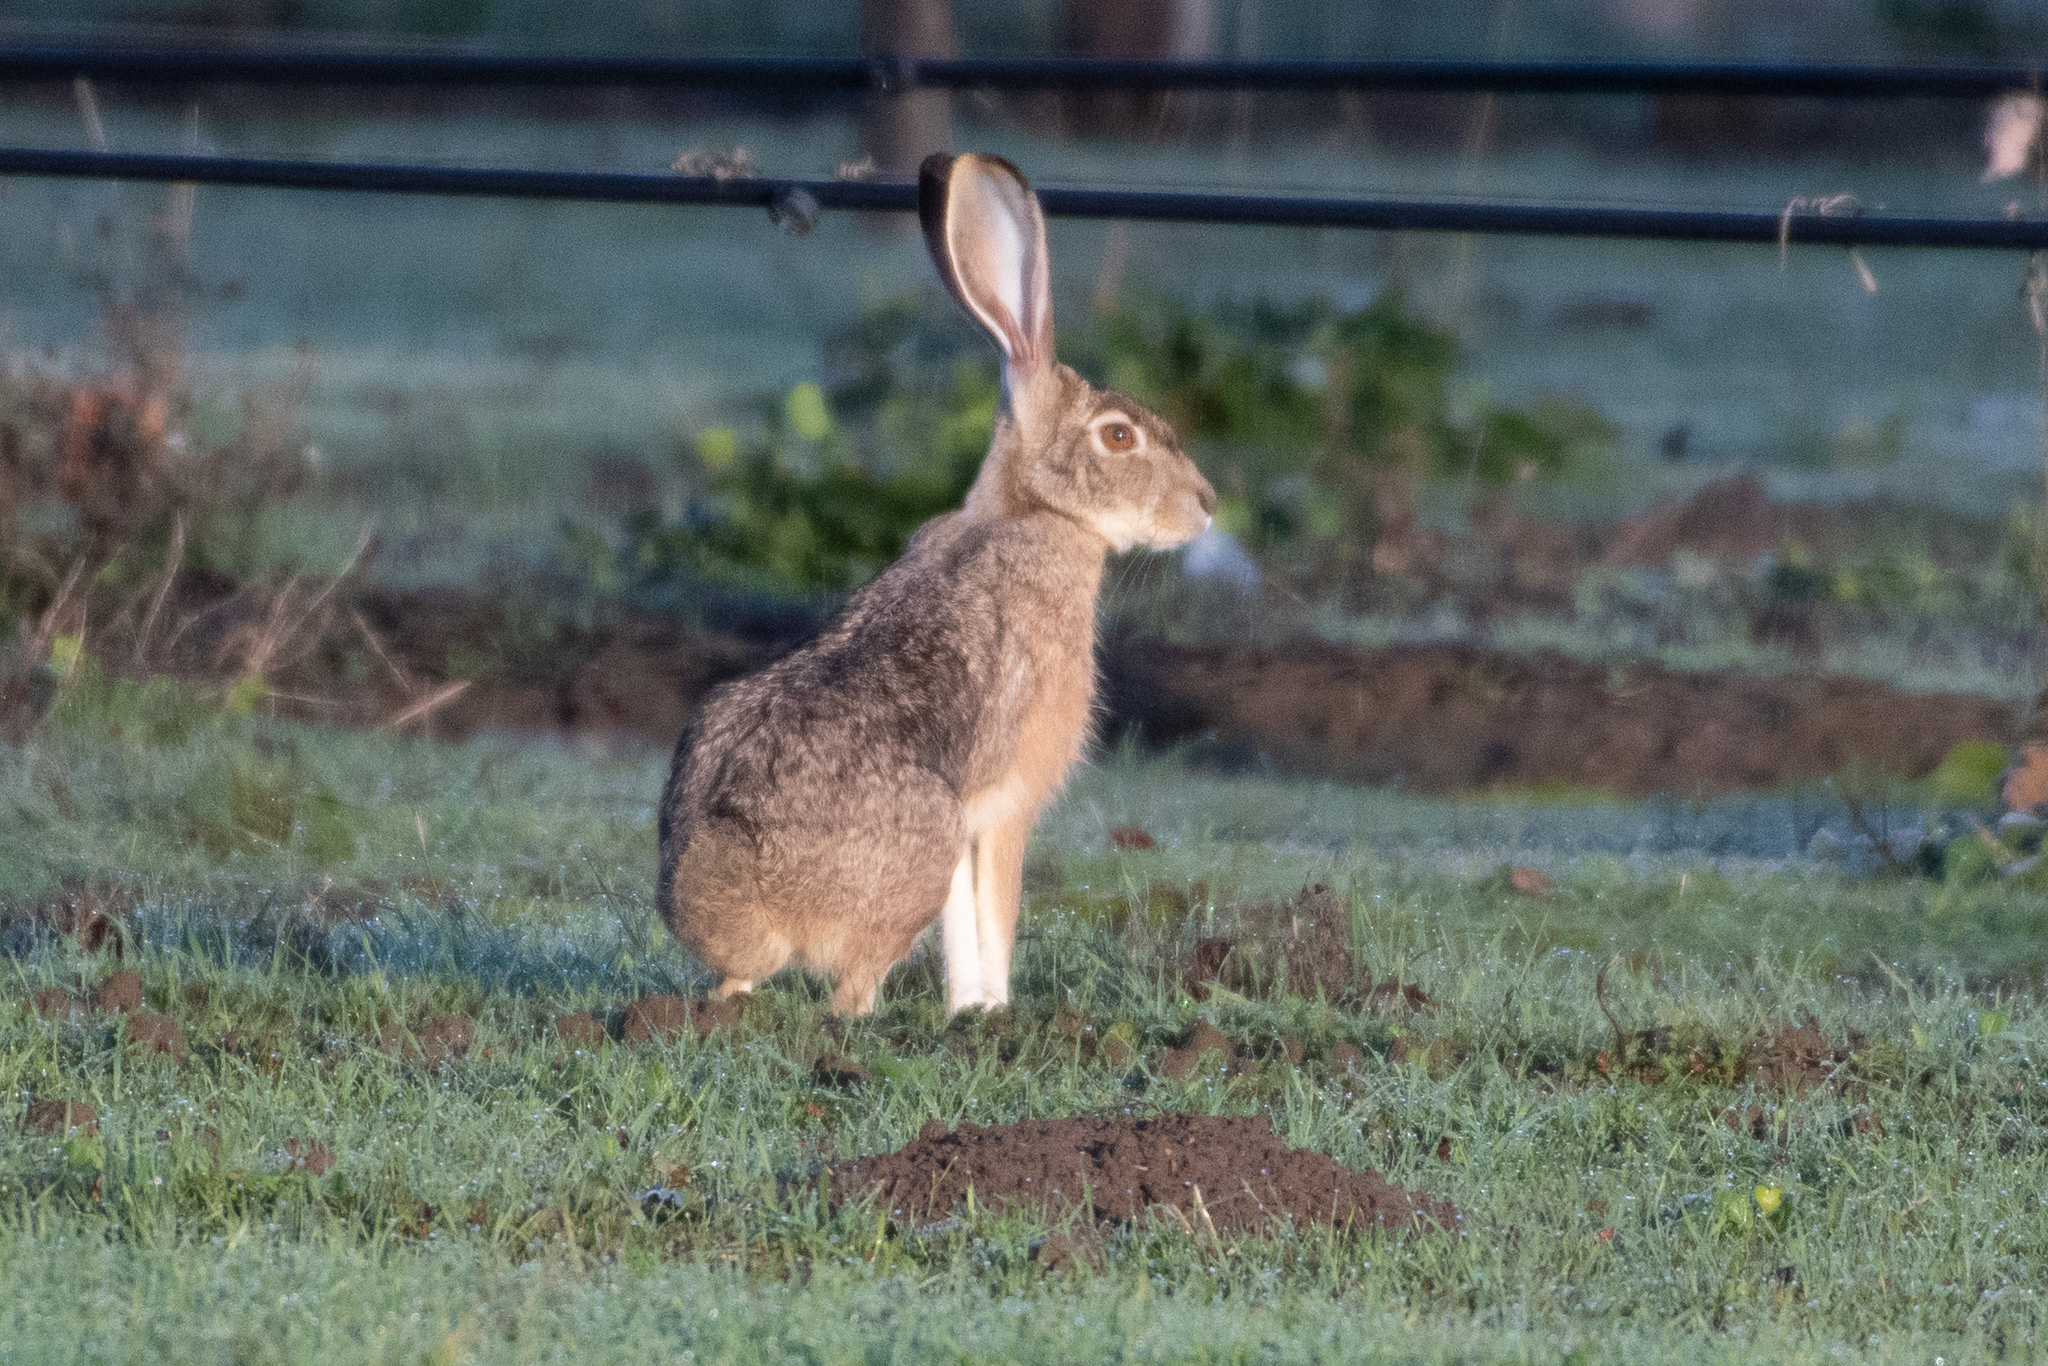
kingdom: Animalia
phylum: Chordata
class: Mammalia
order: Lagomorpha
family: Leporidae
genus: Lepus
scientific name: Lepus californicus
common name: Black-tailed jackrabbit
